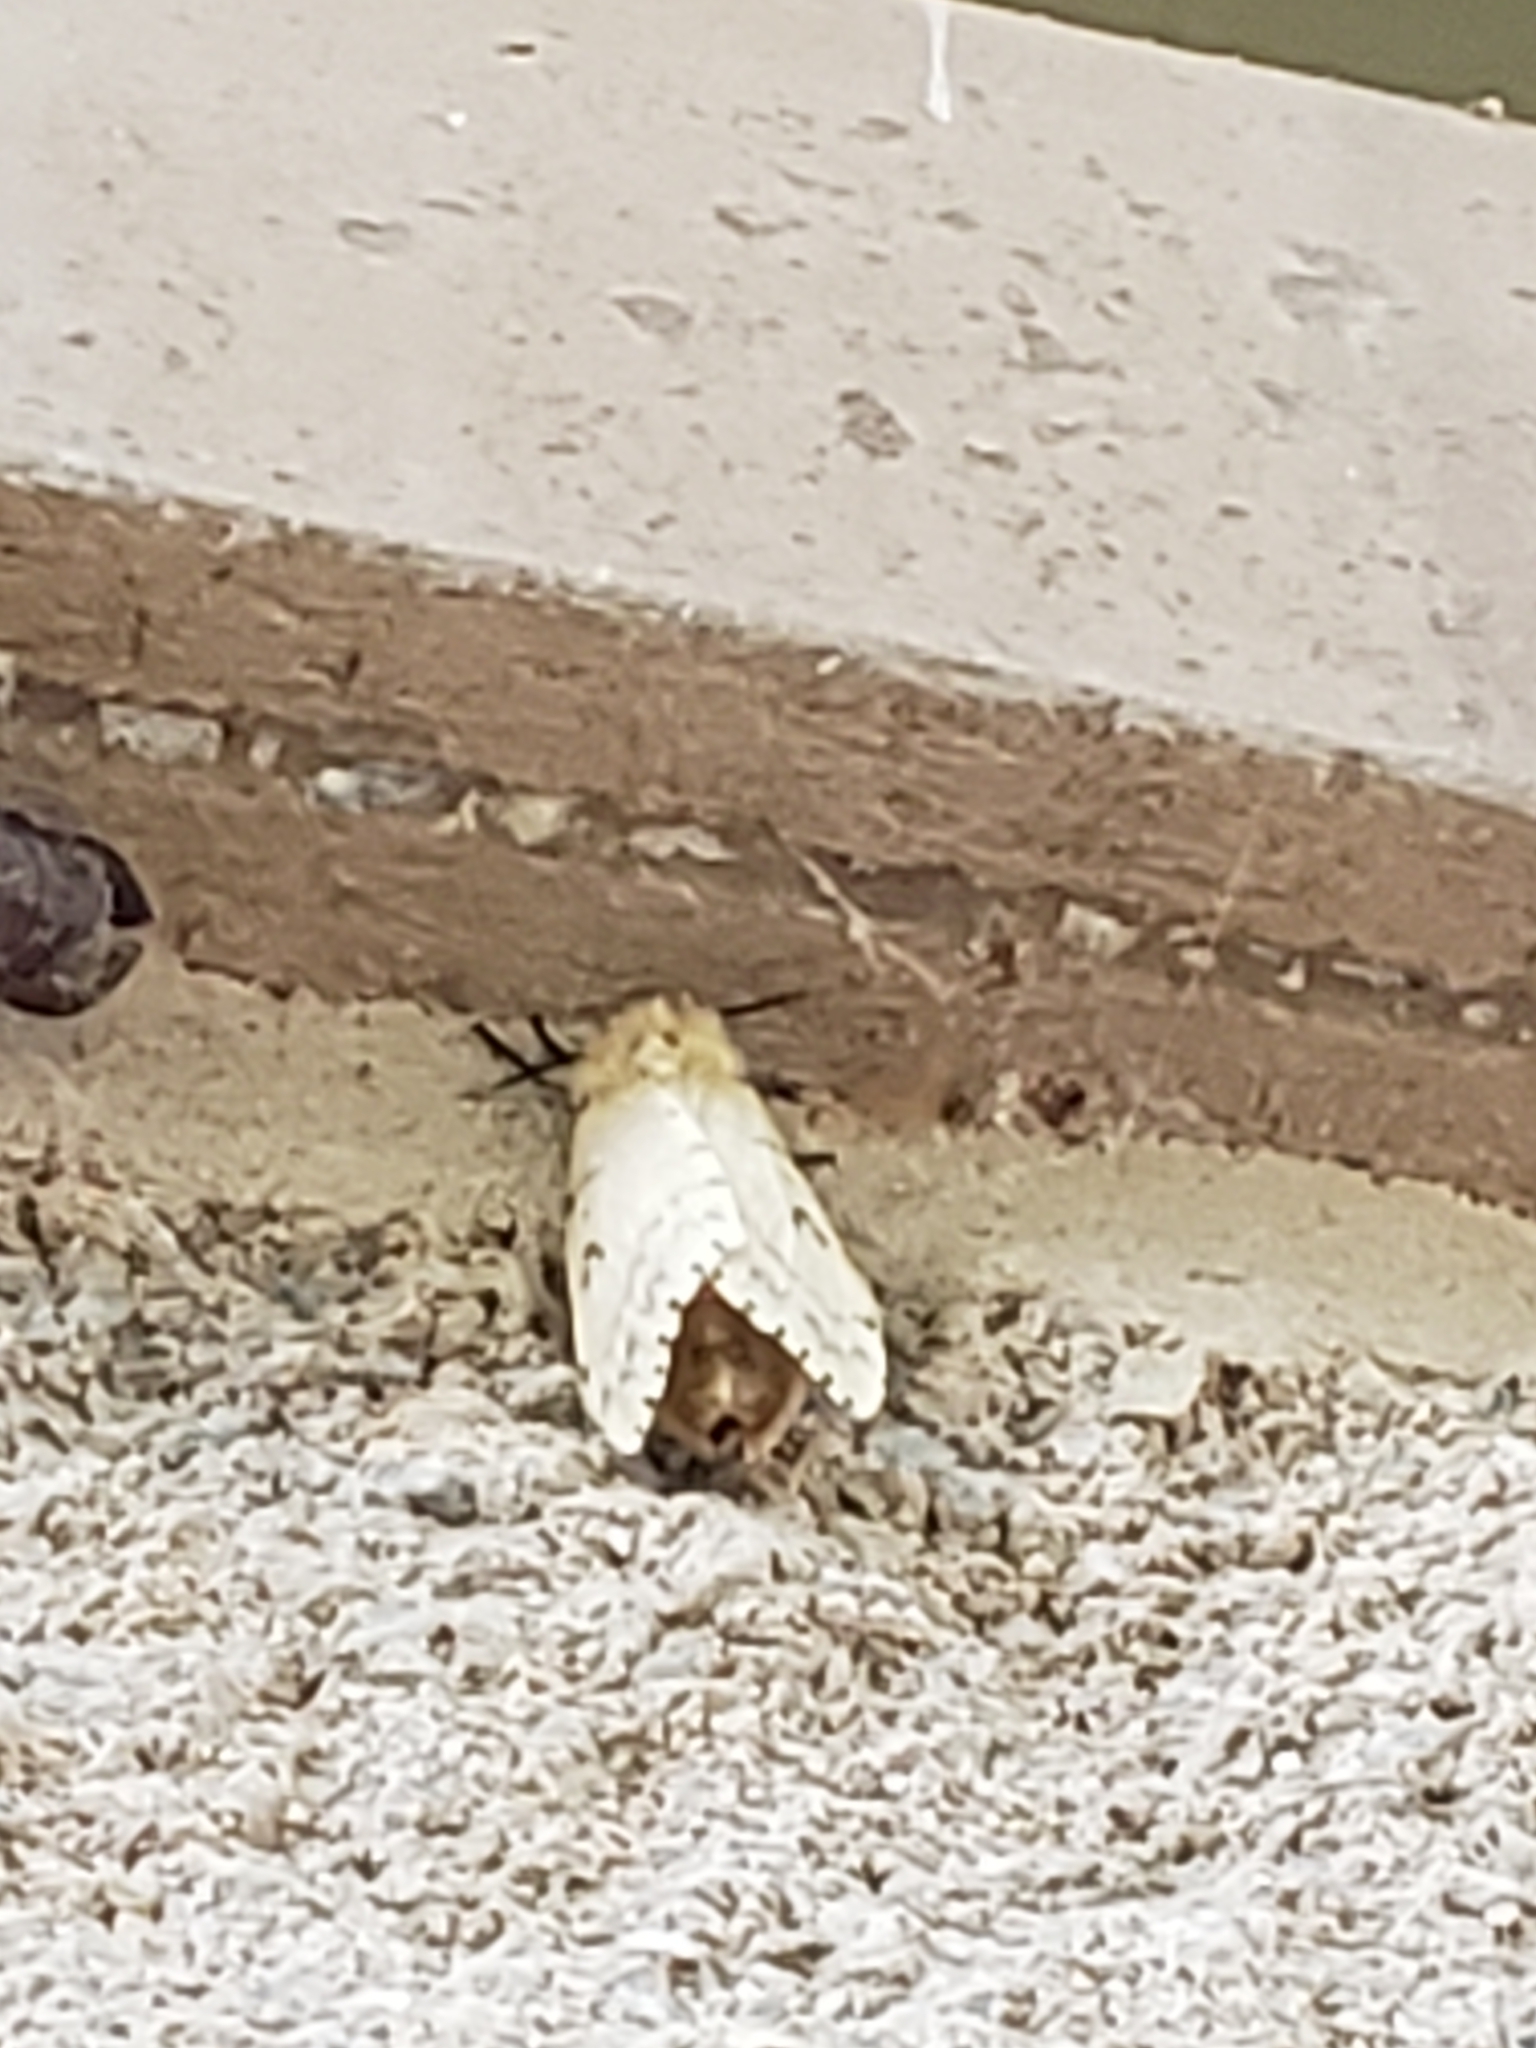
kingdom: Animalia
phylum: Arthropoda
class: Insecta
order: Lepidoptera
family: Erebidae
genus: Lymantria
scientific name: Lymantria dispar
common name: Gypsy moth
